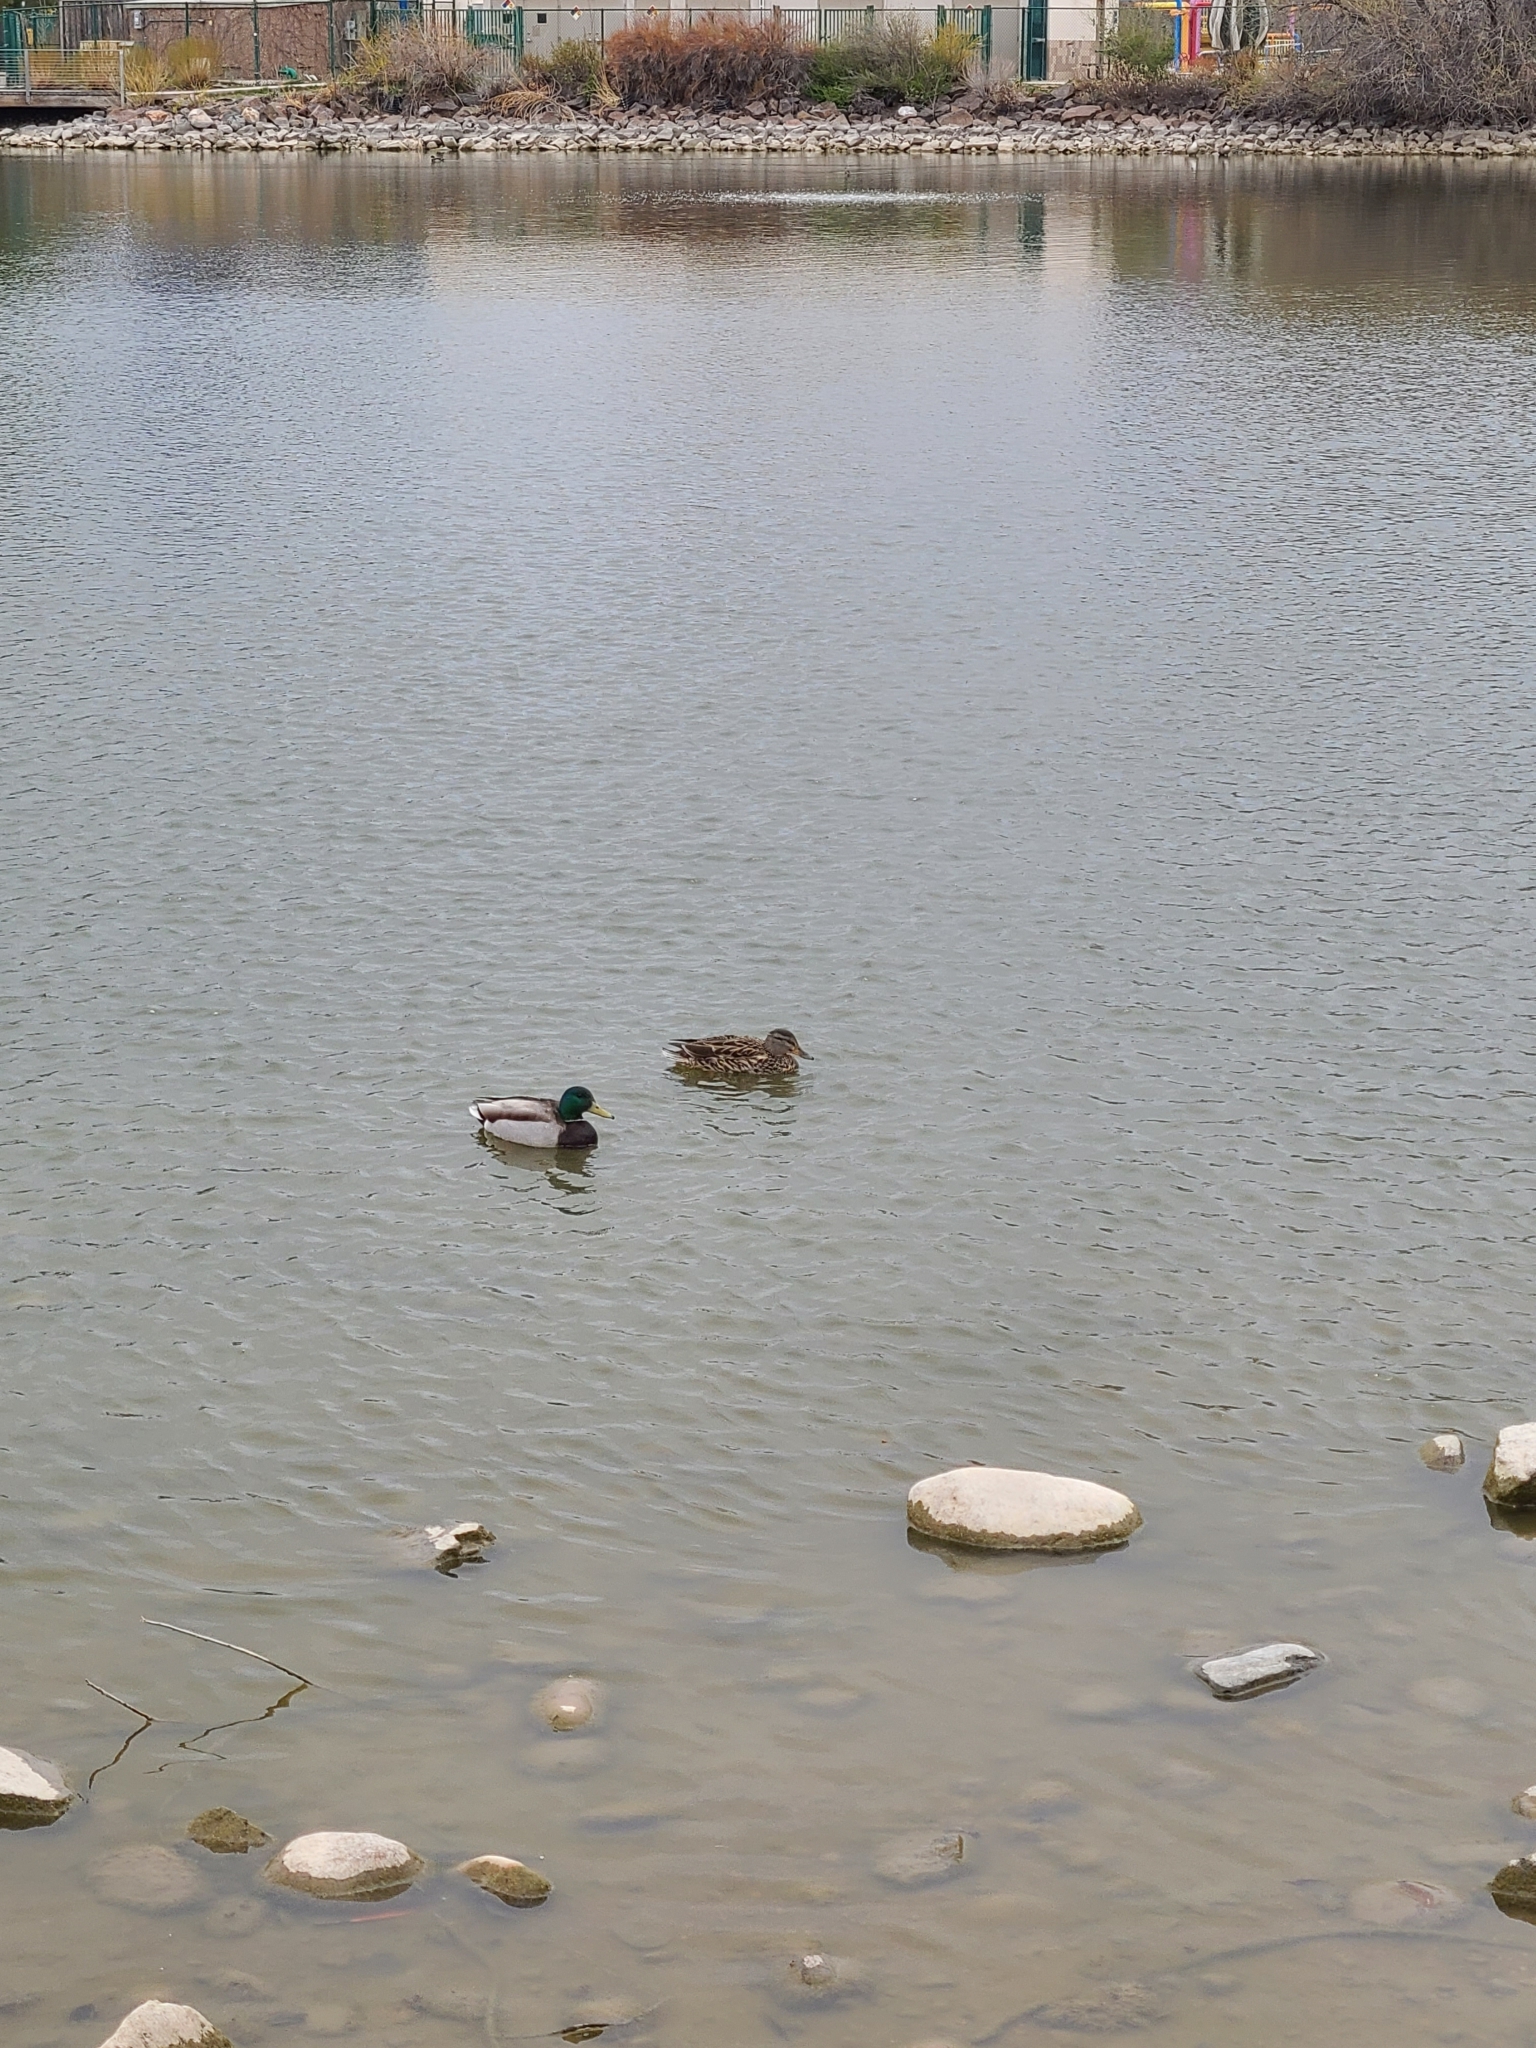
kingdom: Animalia
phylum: Chordata
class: Aves
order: Anseriformes
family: Anatidae
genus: Anas
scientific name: Anas platyrhynchos
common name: Mallard
